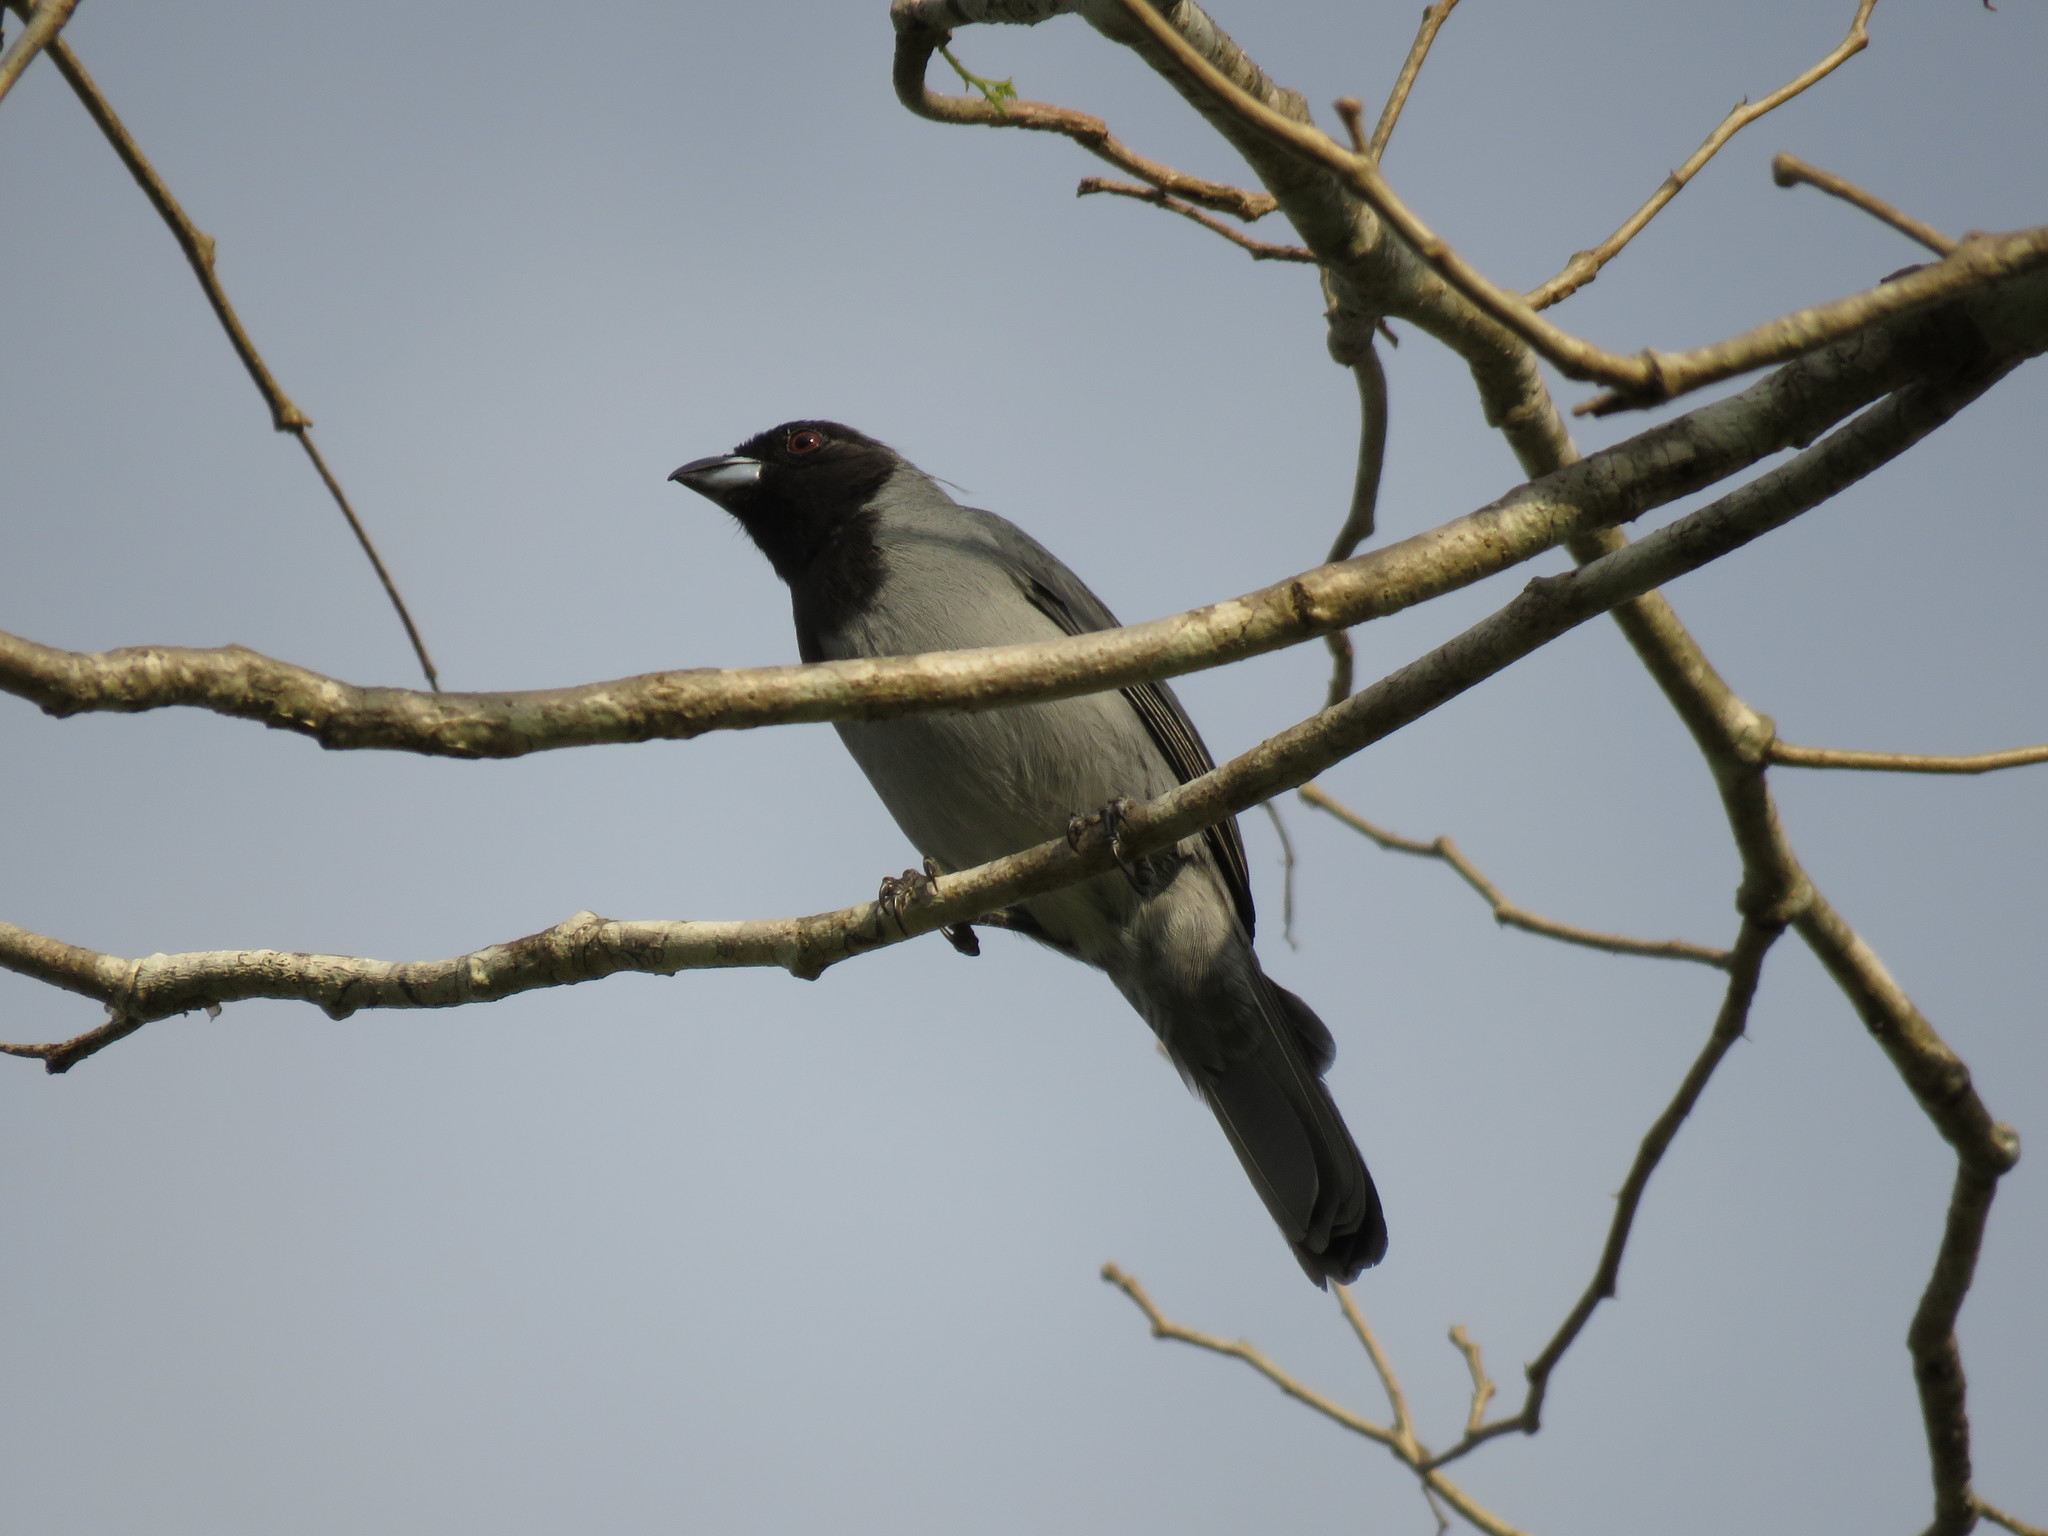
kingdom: Animalia
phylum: Chordata
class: Aves
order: Passeriformes
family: Thraupidae
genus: Schistochlamys
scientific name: Schistochlamys melanopis
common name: Black-faced tanager
